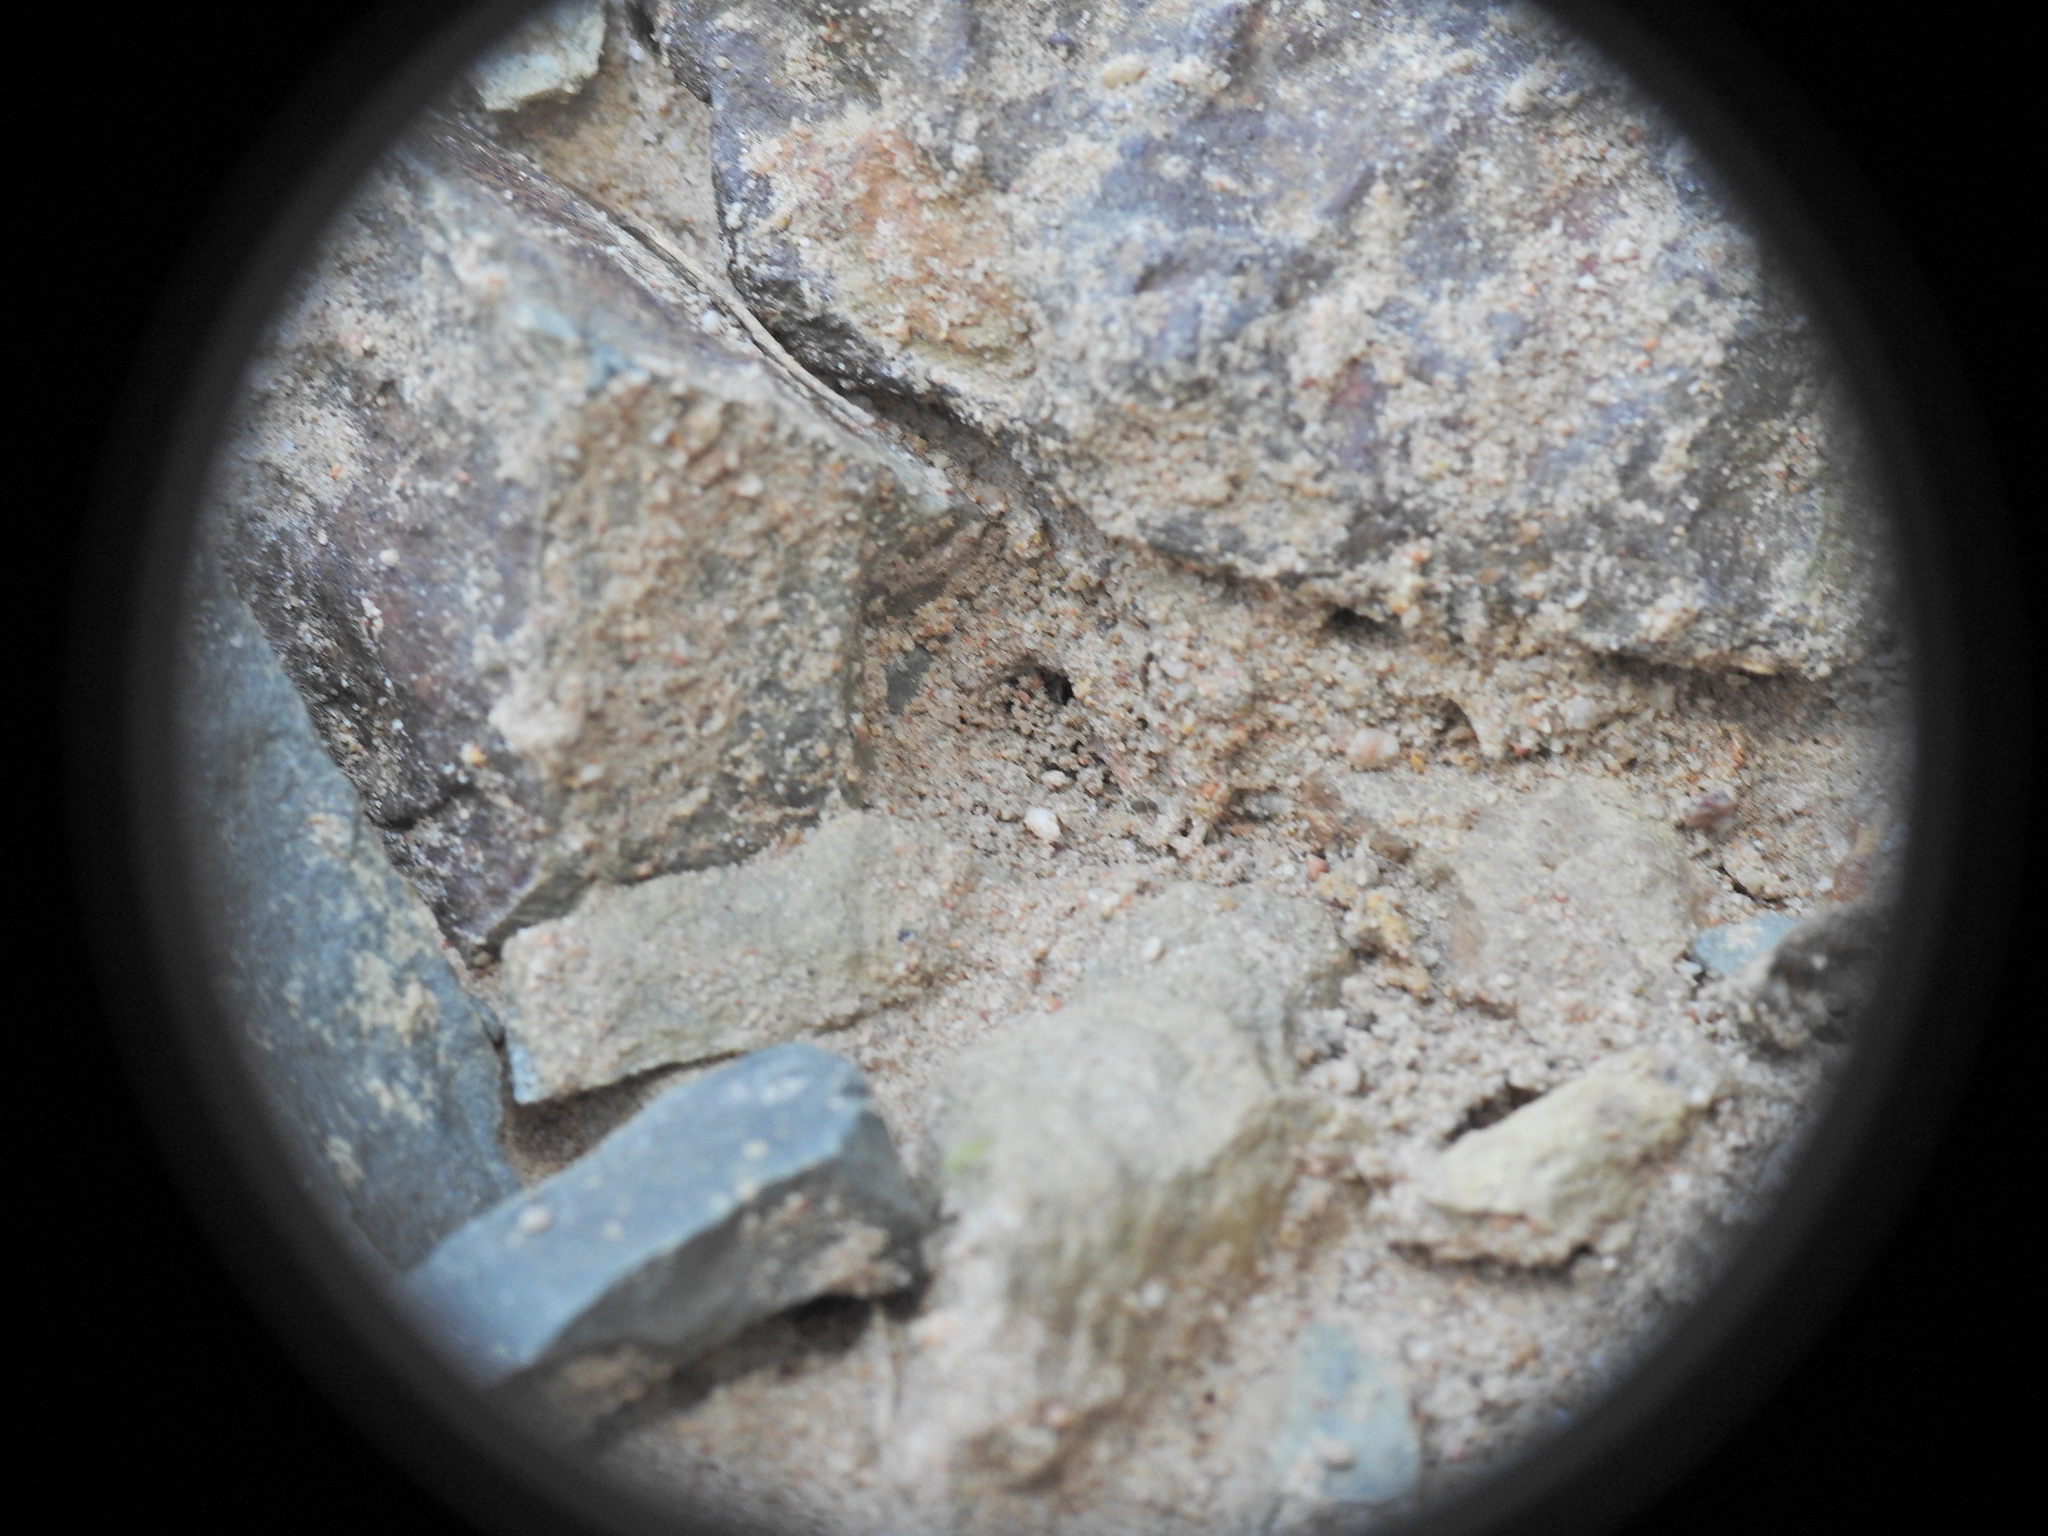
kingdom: Animalia
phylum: Arthropoda
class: Insecta
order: Hymenoptera
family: Formicidae
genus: Pheidole
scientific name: Pheidole
